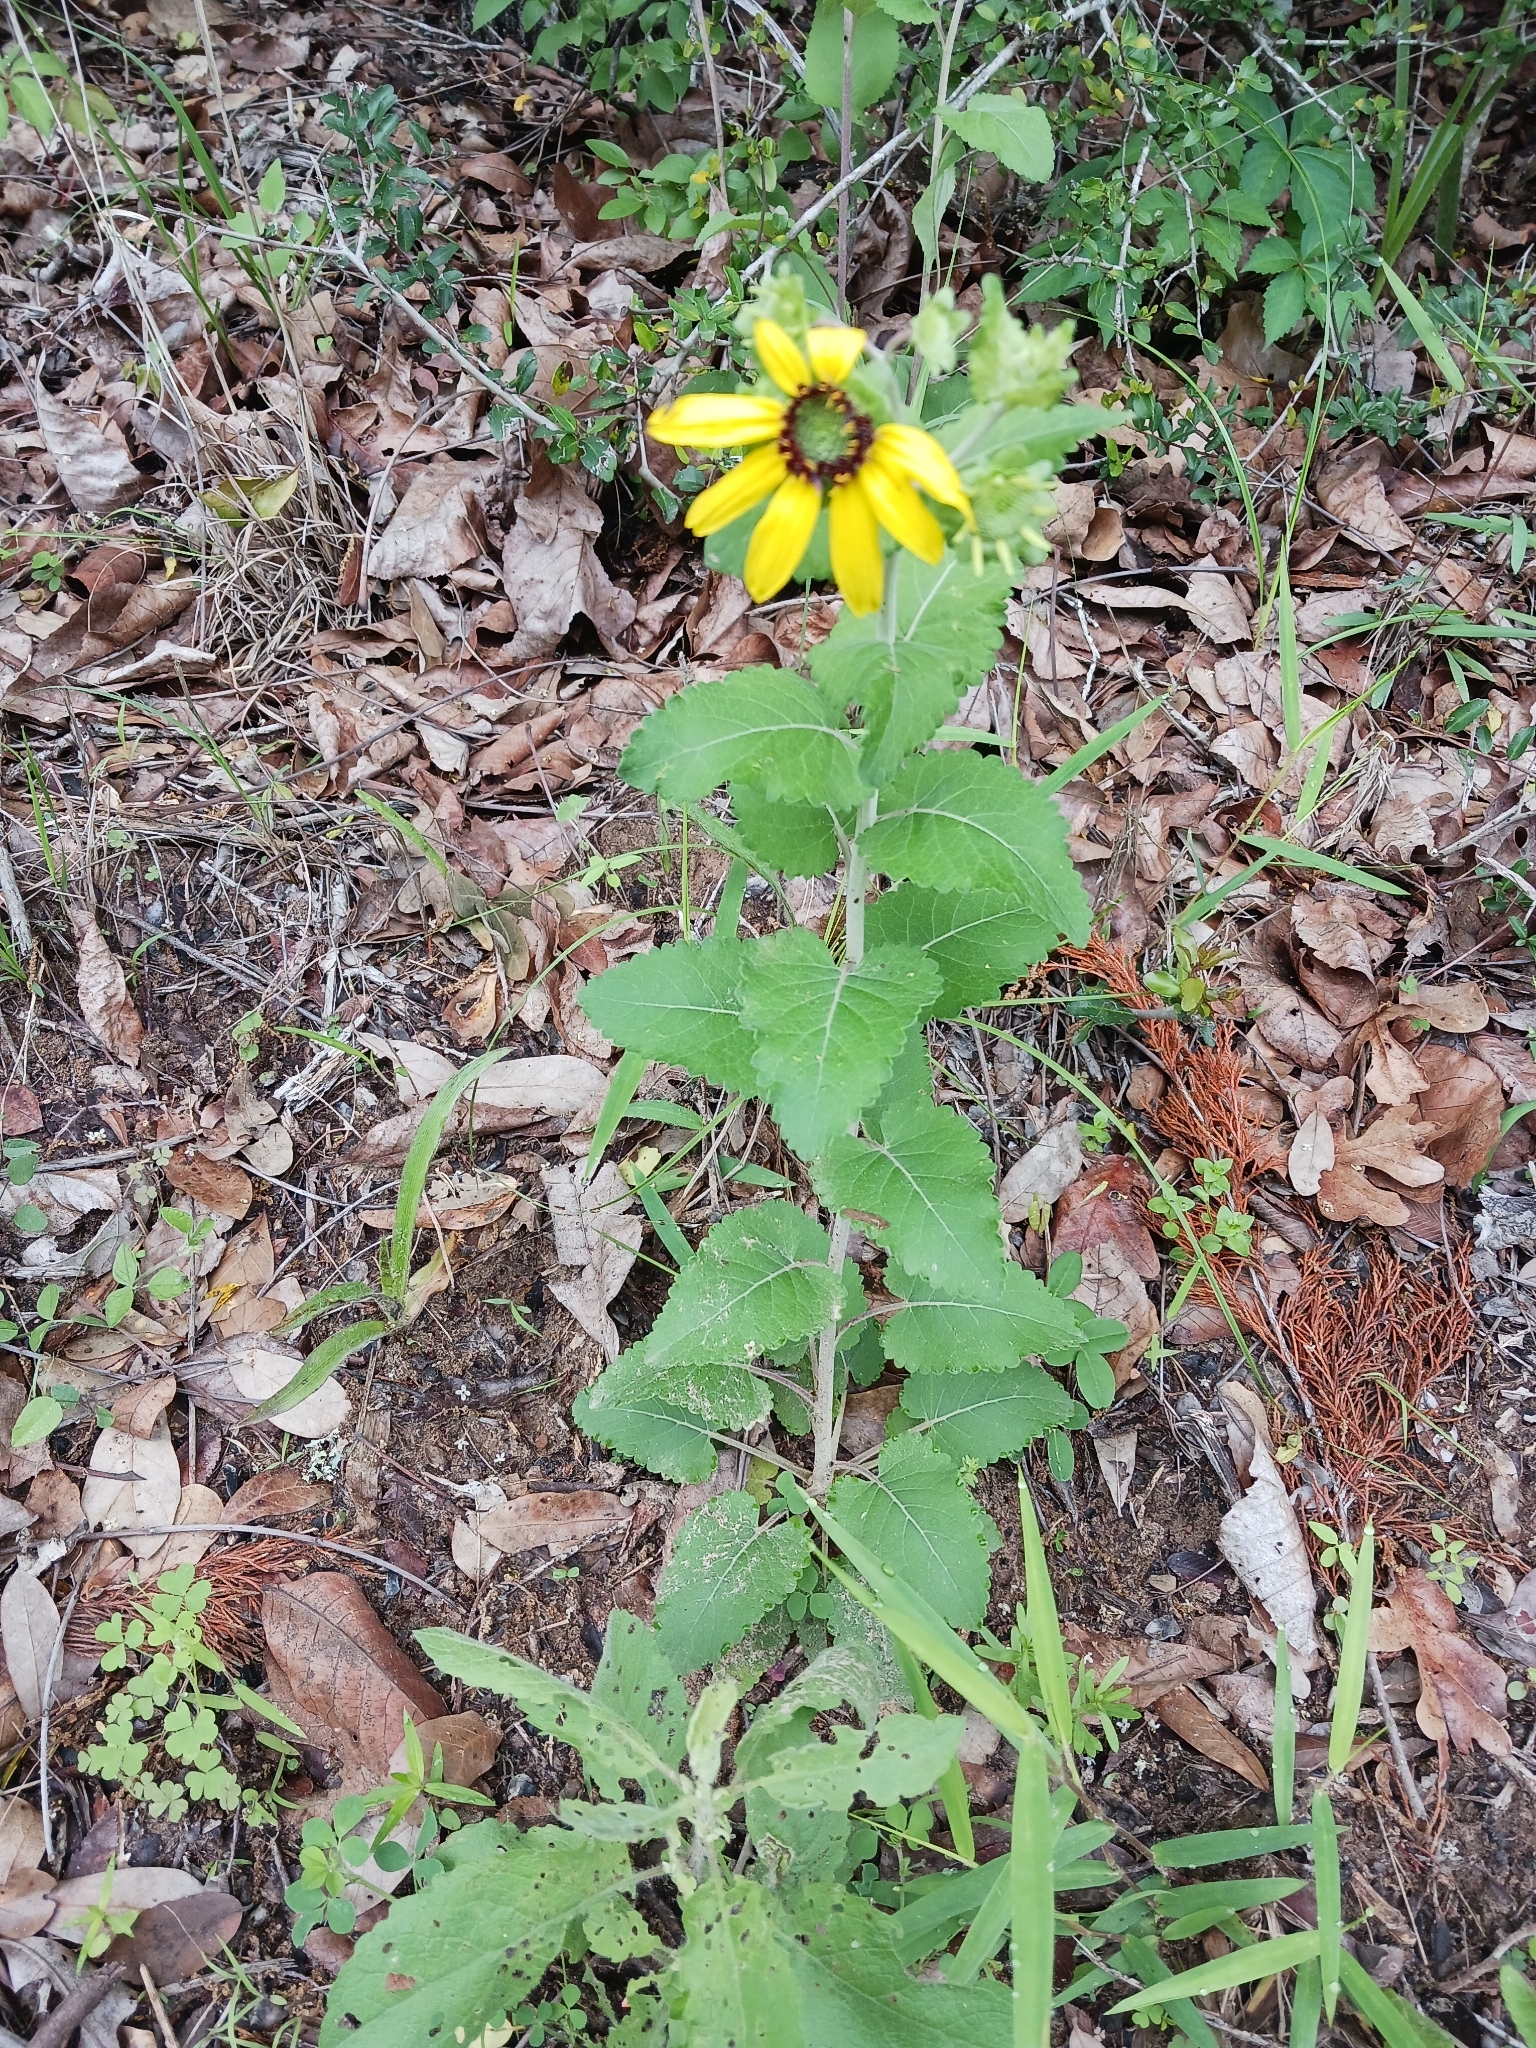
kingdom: Plantae
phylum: Tracheophyta
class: Magnoliopsida
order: Asterales
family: Asteraceae
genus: Berlandiera
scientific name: Berlandiera pumila
